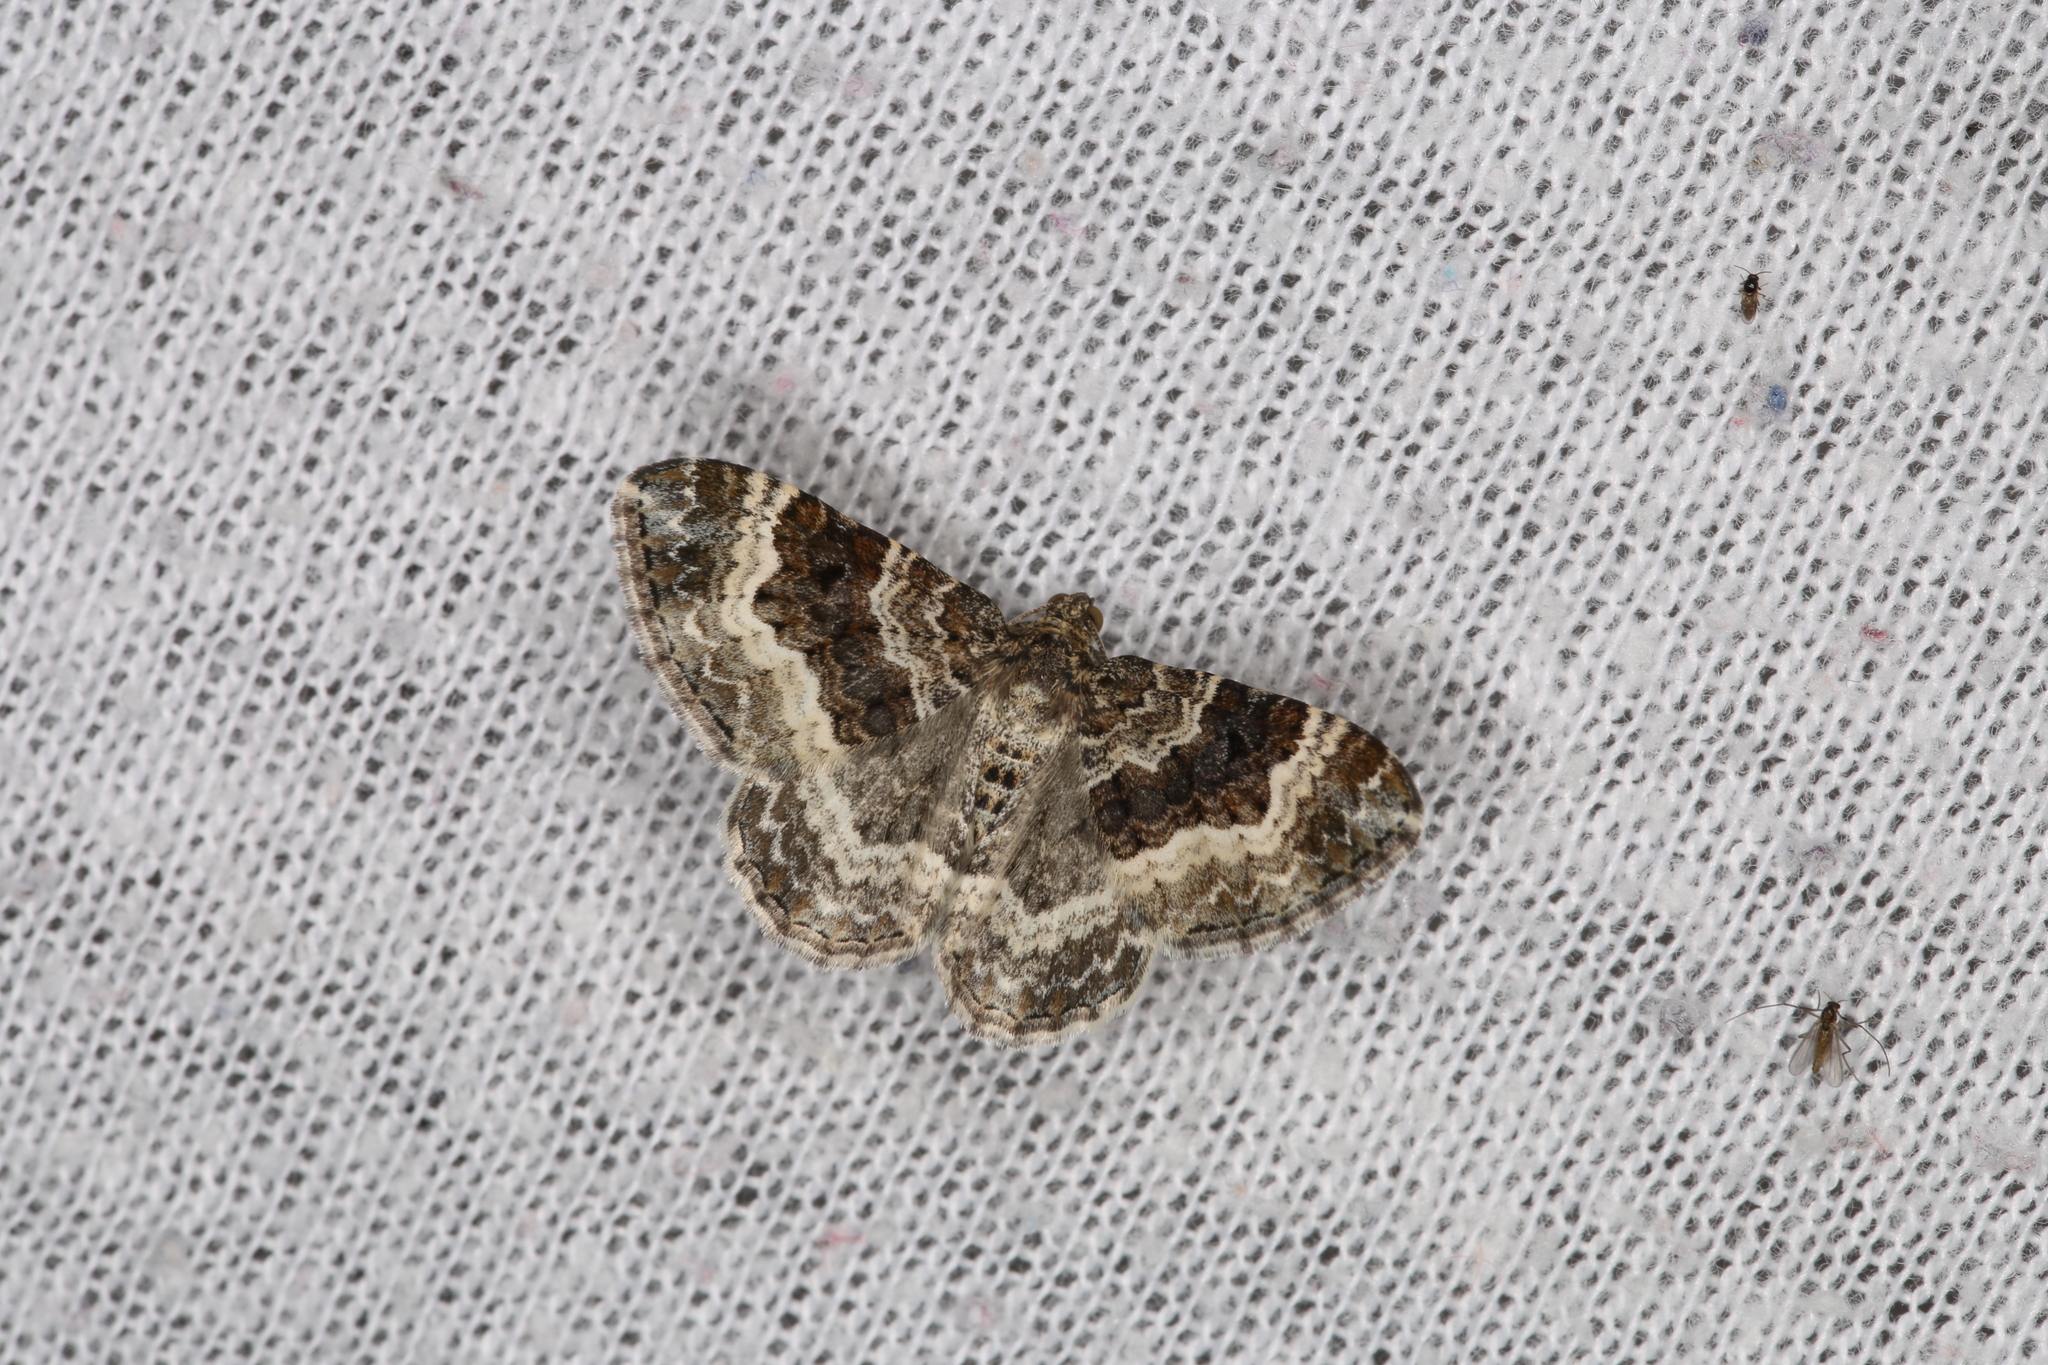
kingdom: Animalia
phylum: Arthropoda
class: Insecta
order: Lepidoptera
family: Geometridae
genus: Epirrhoe
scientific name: Epirrhoe alternata
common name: Common carpet
